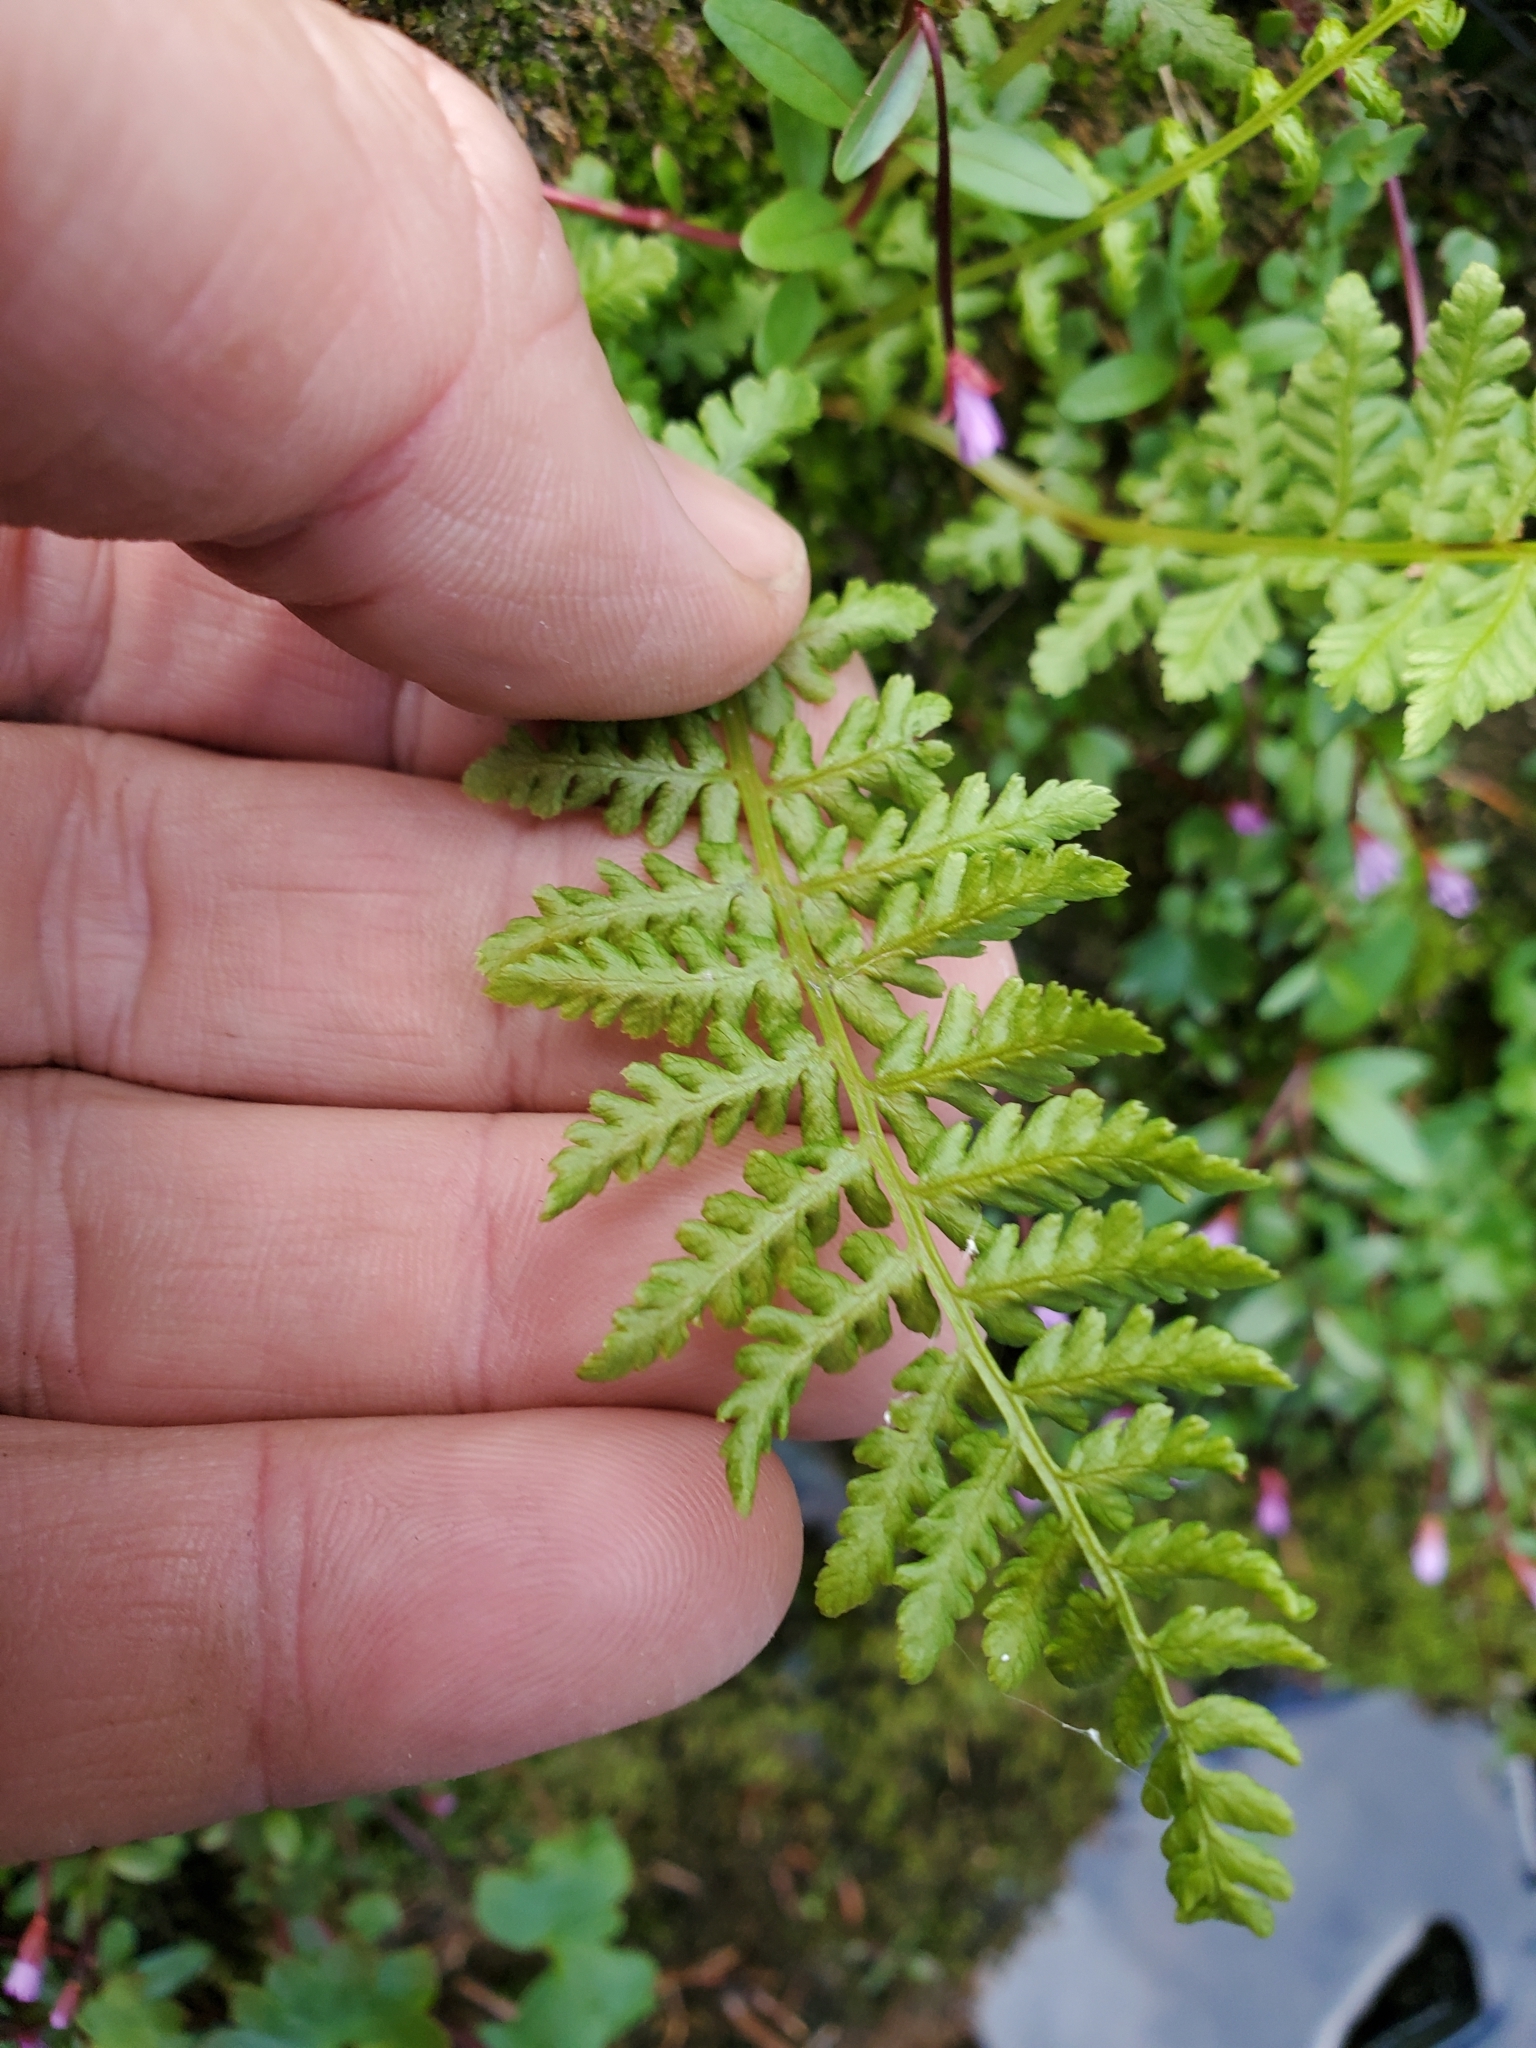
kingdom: Plantae
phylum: Tracheophyta
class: Polypodiopsida
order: Polypodiales
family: Athyriaceae
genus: Athyrium
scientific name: Athyrium filix-femina
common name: Lady fern
